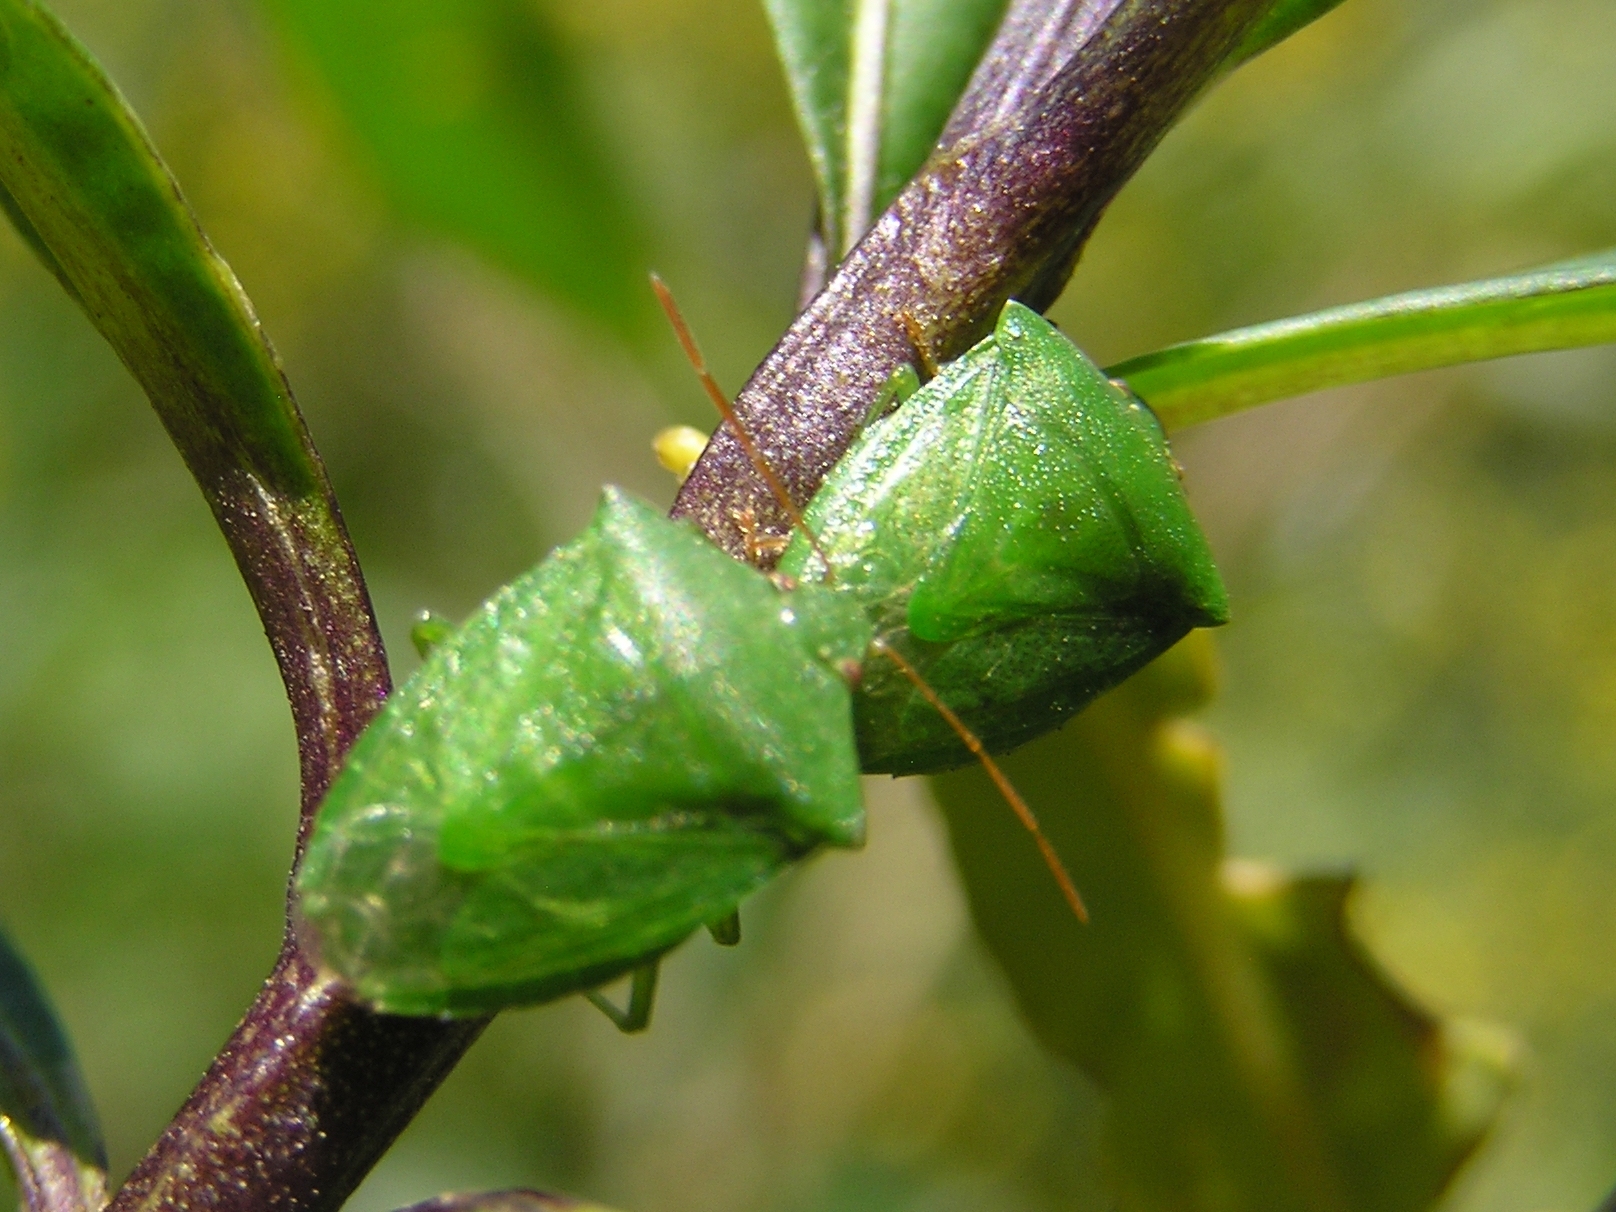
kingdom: Animalia
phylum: Arthropoda
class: Insecta
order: Hemiptera
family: Pentatomidae
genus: Cuspicona
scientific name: Cuspicona simplex
